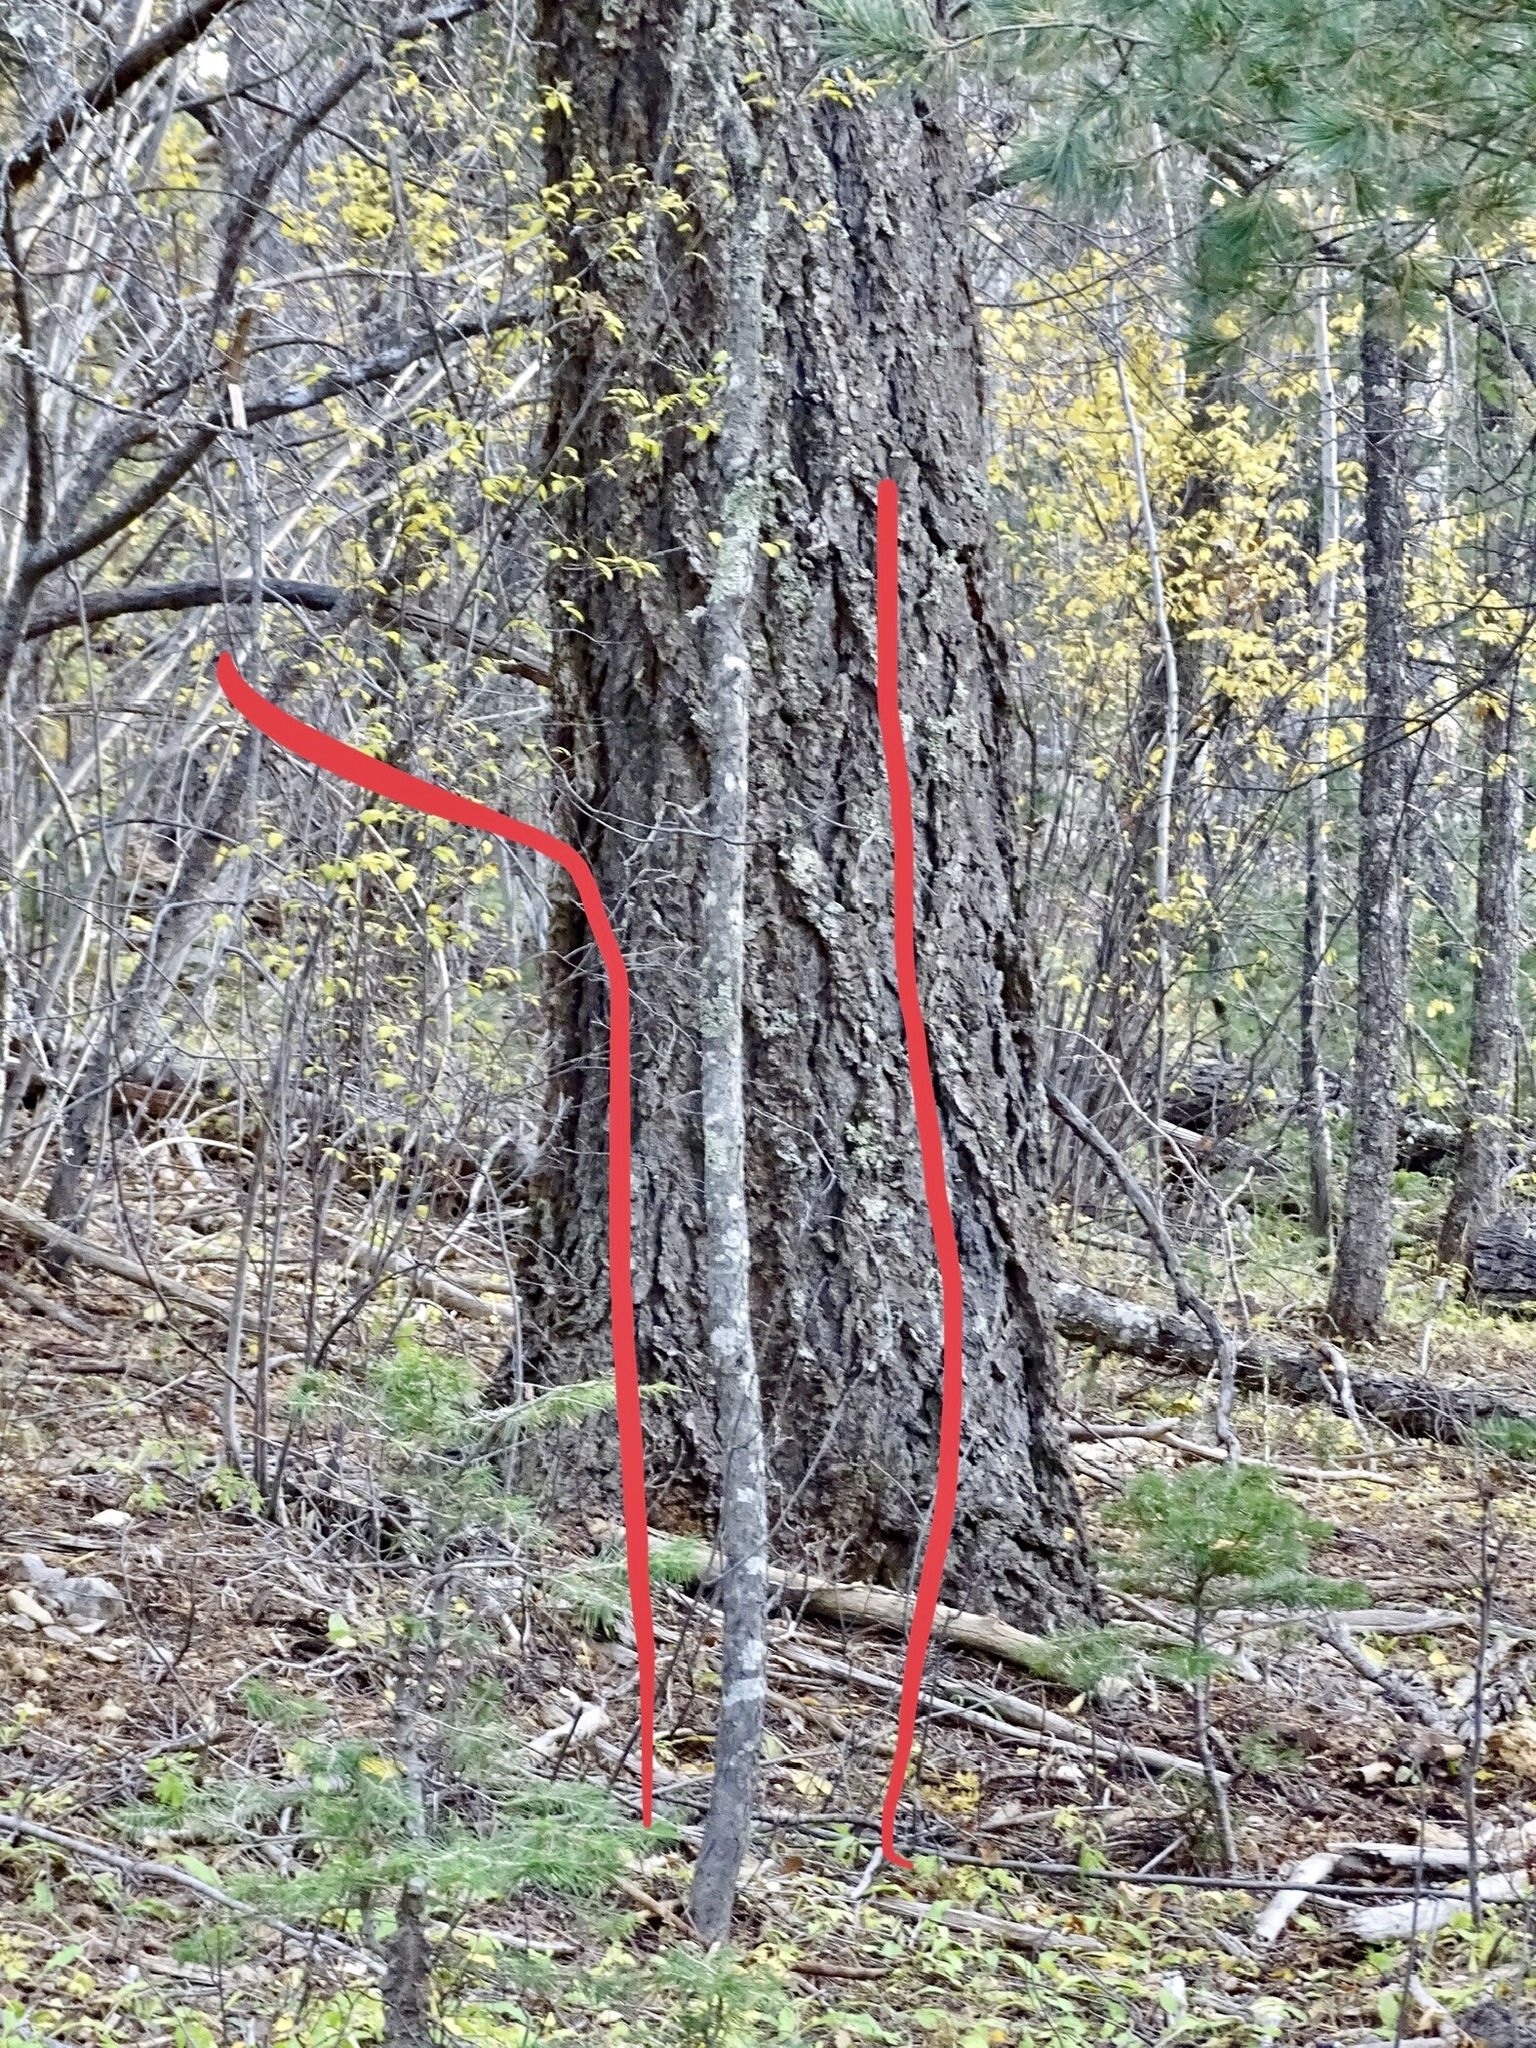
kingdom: Plantae
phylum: Tracheophyta
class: Magnoliopsida
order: Rosales
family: Rosaceae
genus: Prunus
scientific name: Prunus virginiana
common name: Chokecherry
